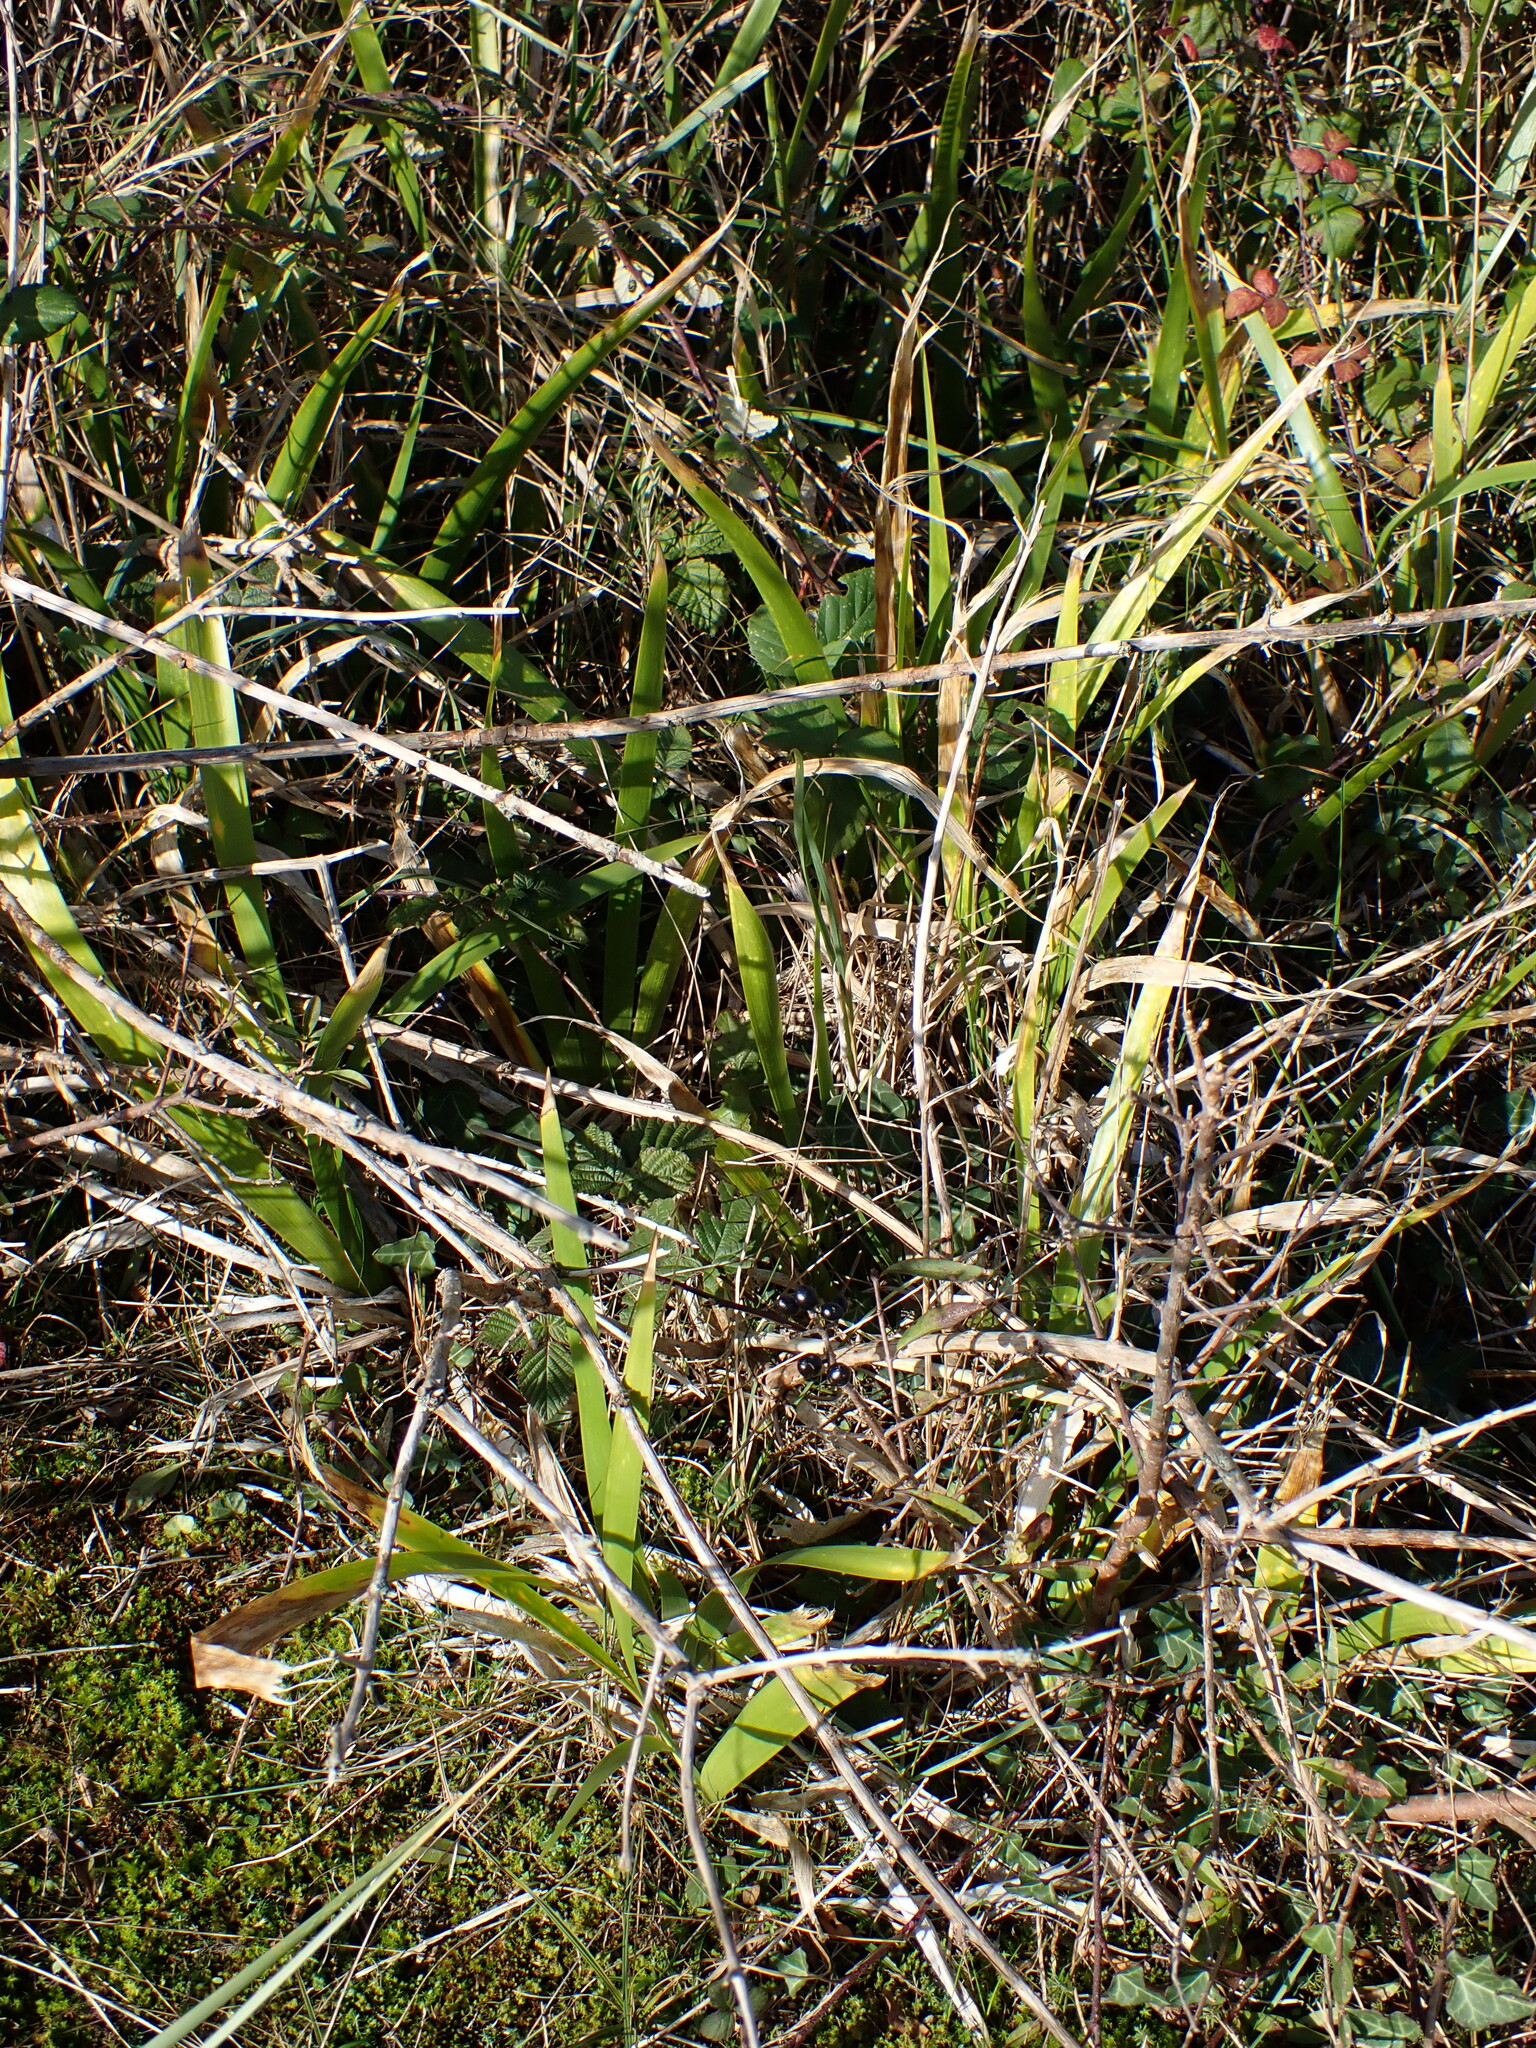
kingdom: Plantae
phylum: Tracheophyta
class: Liliopsida
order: Asparagales
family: Iridaceae
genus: Iris
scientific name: Iris foetidissima
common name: Stinking iris
